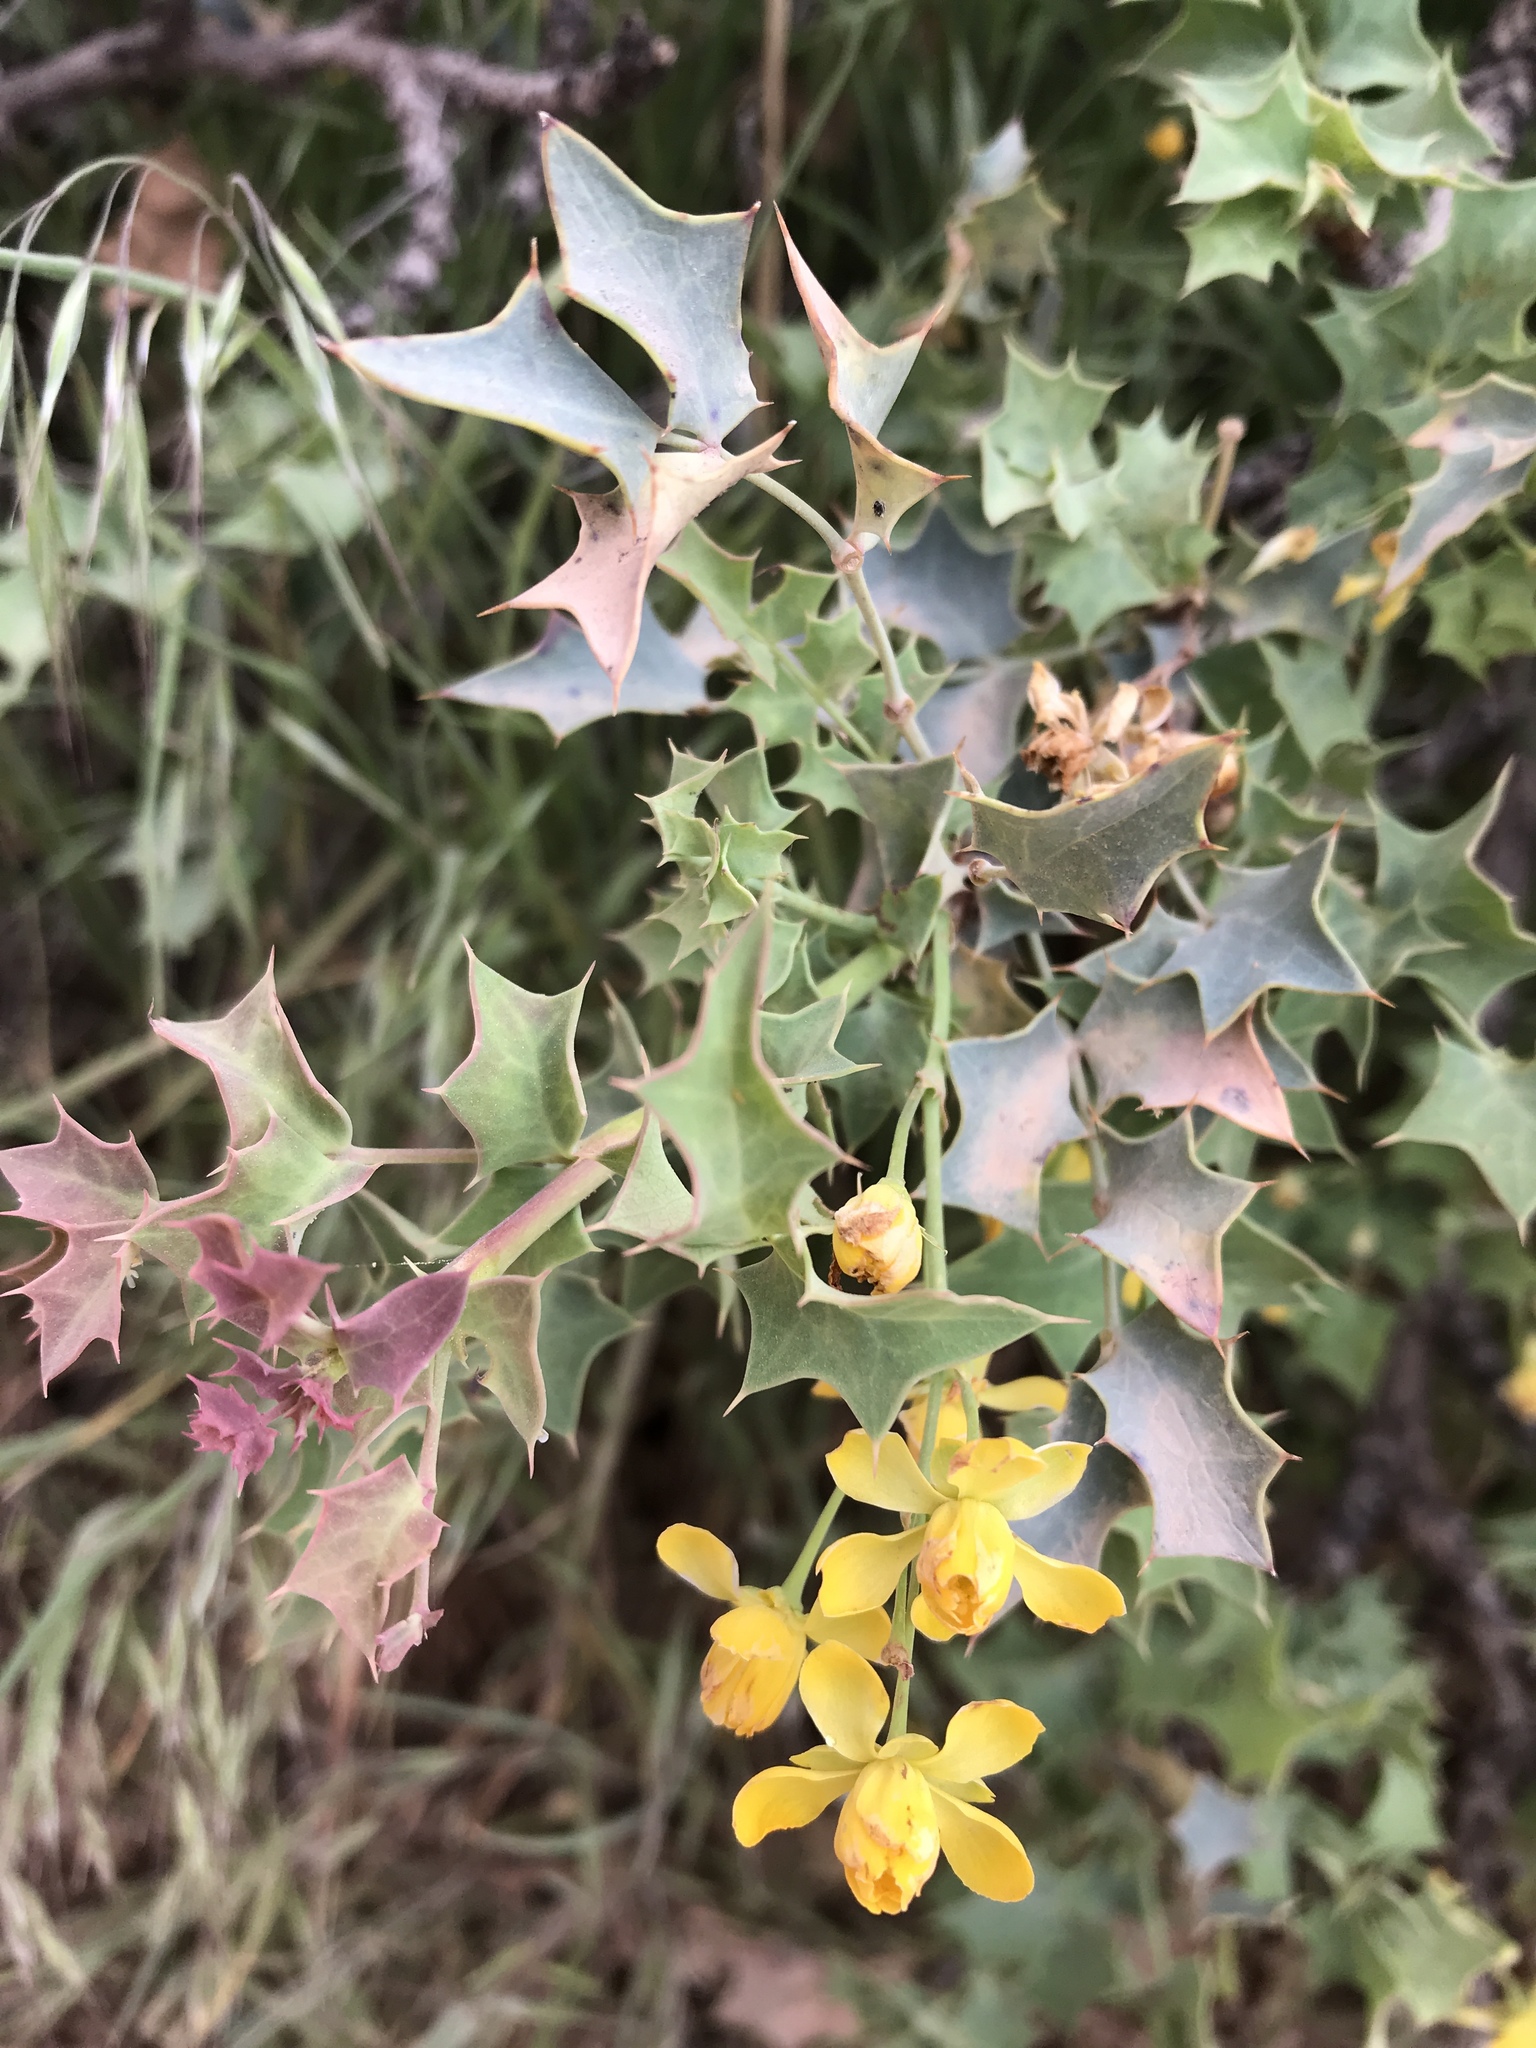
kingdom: Plantae
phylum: Tracheophyta
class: Magnoliopsida
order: Ranunculales
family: Berberidaceae
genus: Alloberberis
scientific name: Alloberberis fremontii
